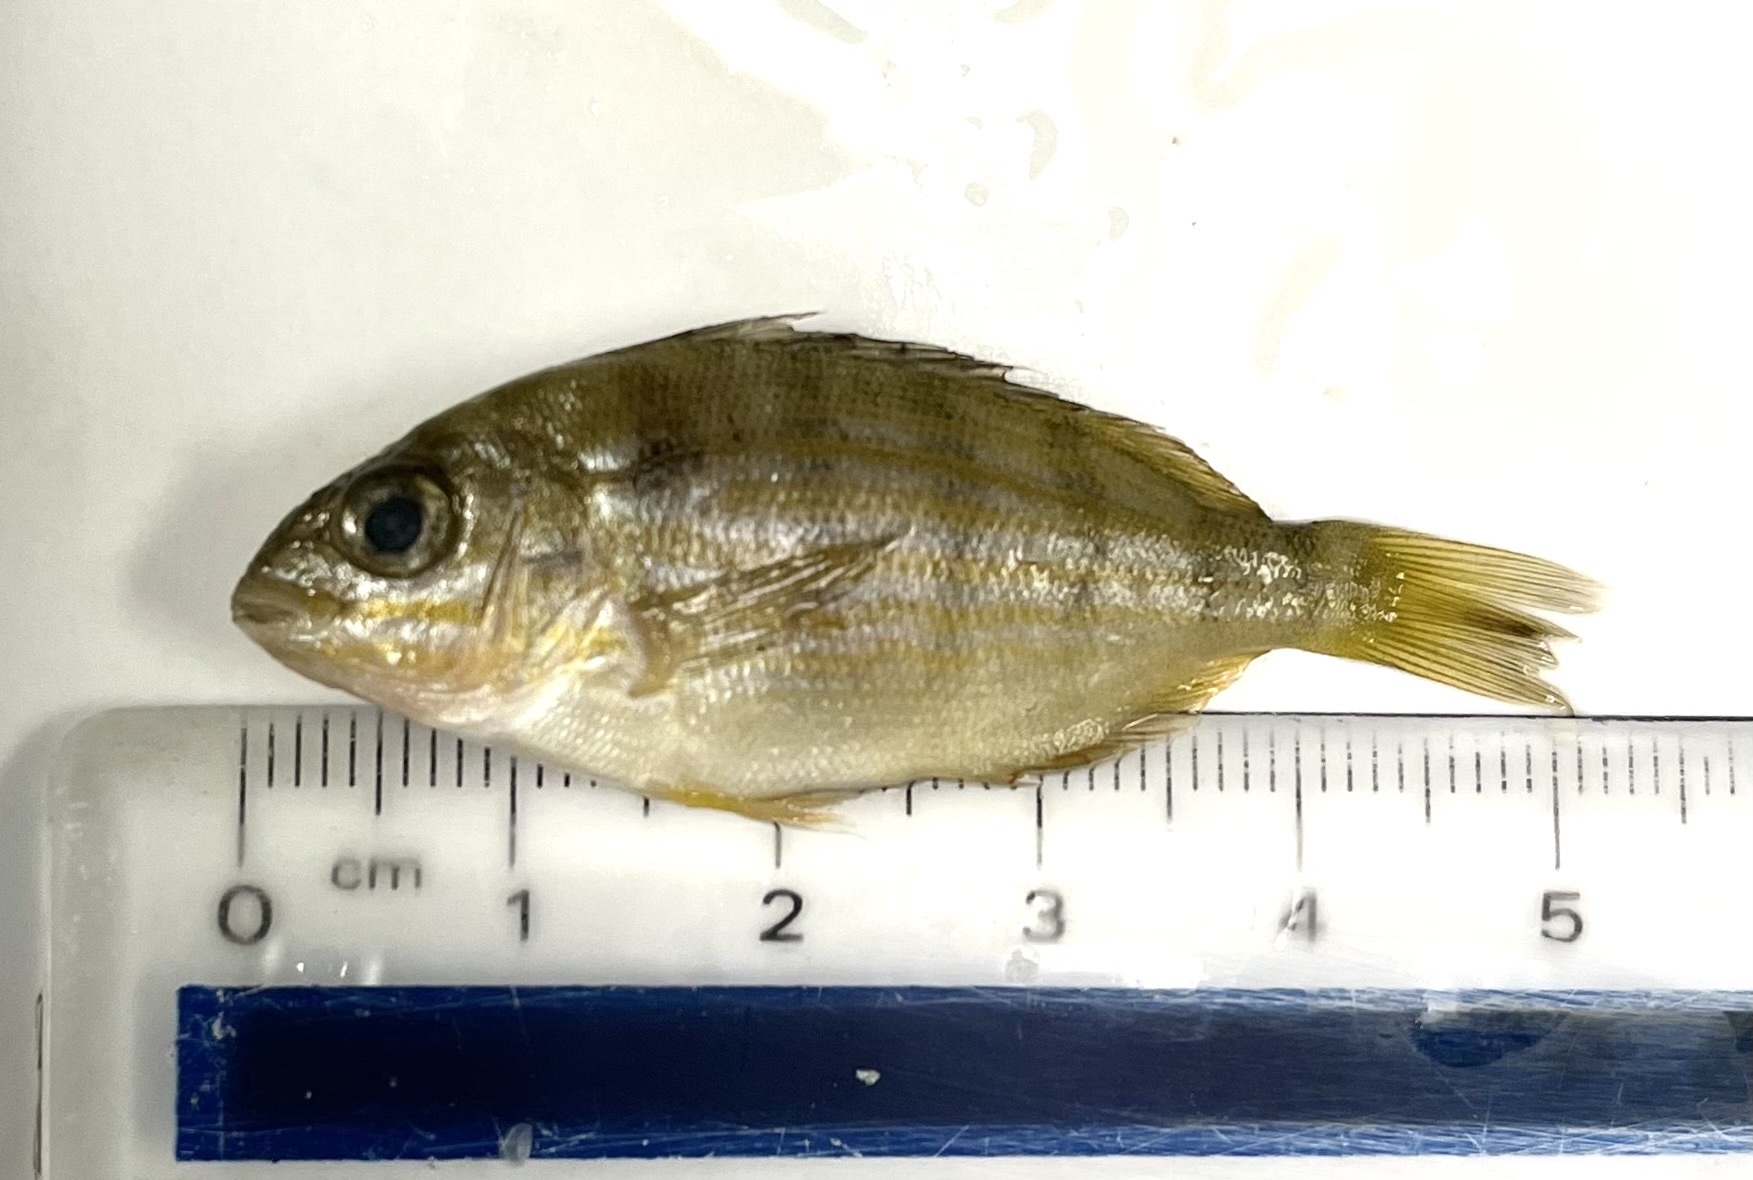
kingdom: Animalia
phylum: Chordata
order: Perciformes
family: Sparidae
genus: Lagodon
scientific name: Lagodon rhomboides
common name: Pinfish
